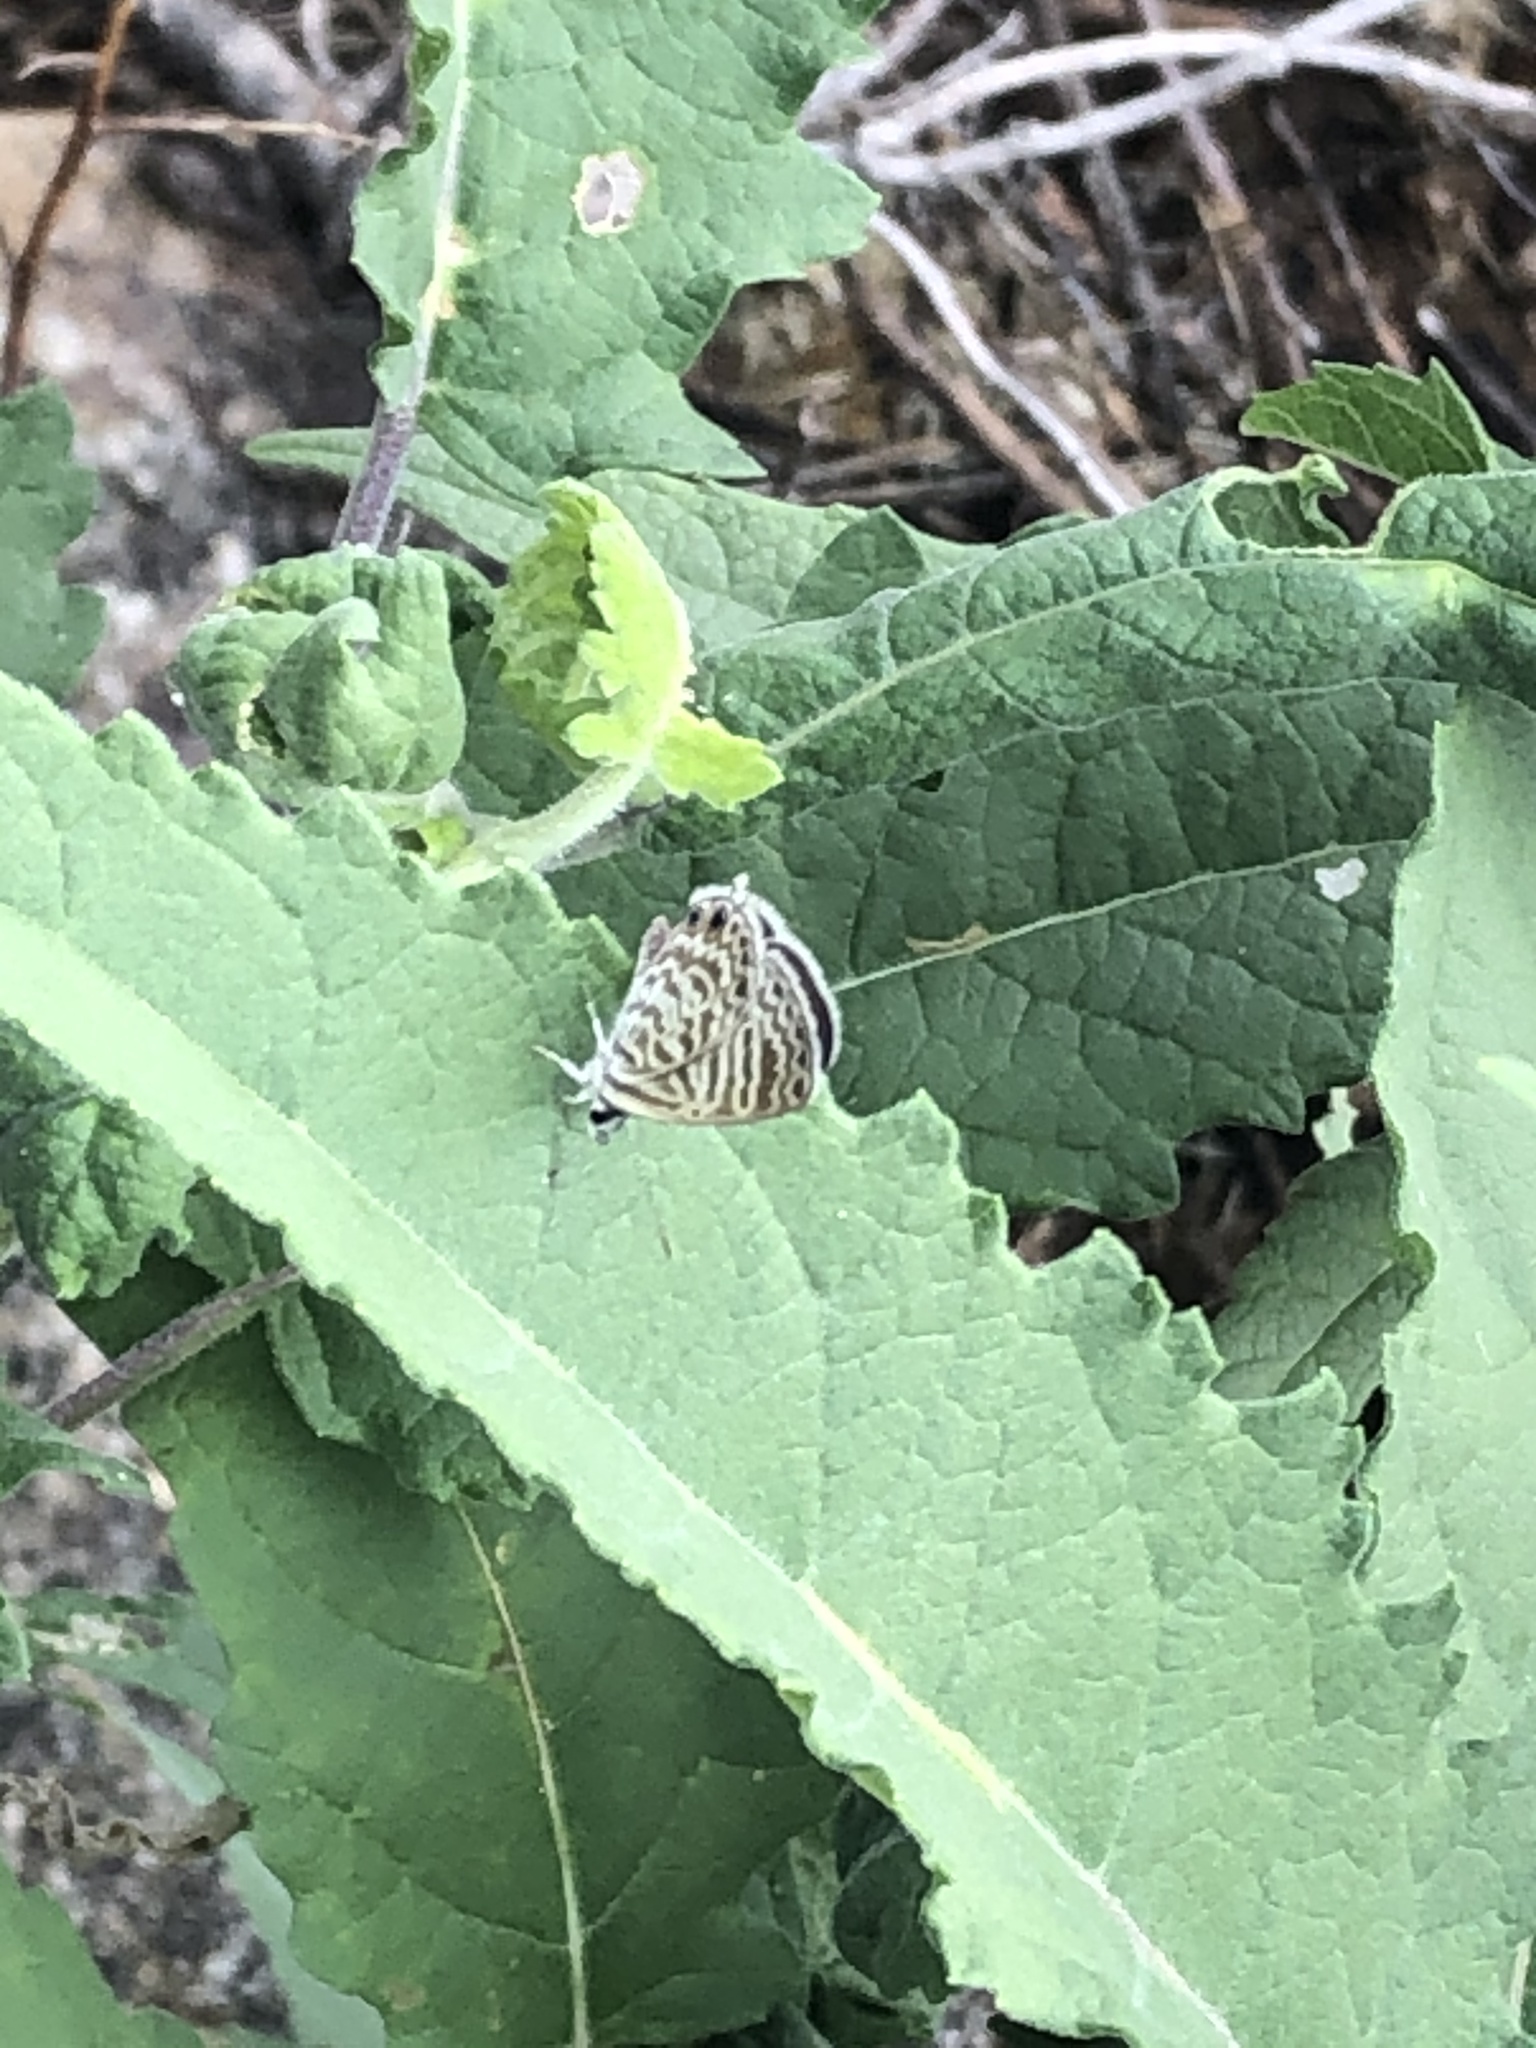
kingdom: Animalia
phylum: Arthropoda
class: Insecta
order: Lepidoptera
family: Lycaenidae
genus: Leptotes
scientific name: Leptotes marina
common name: Marine blue
